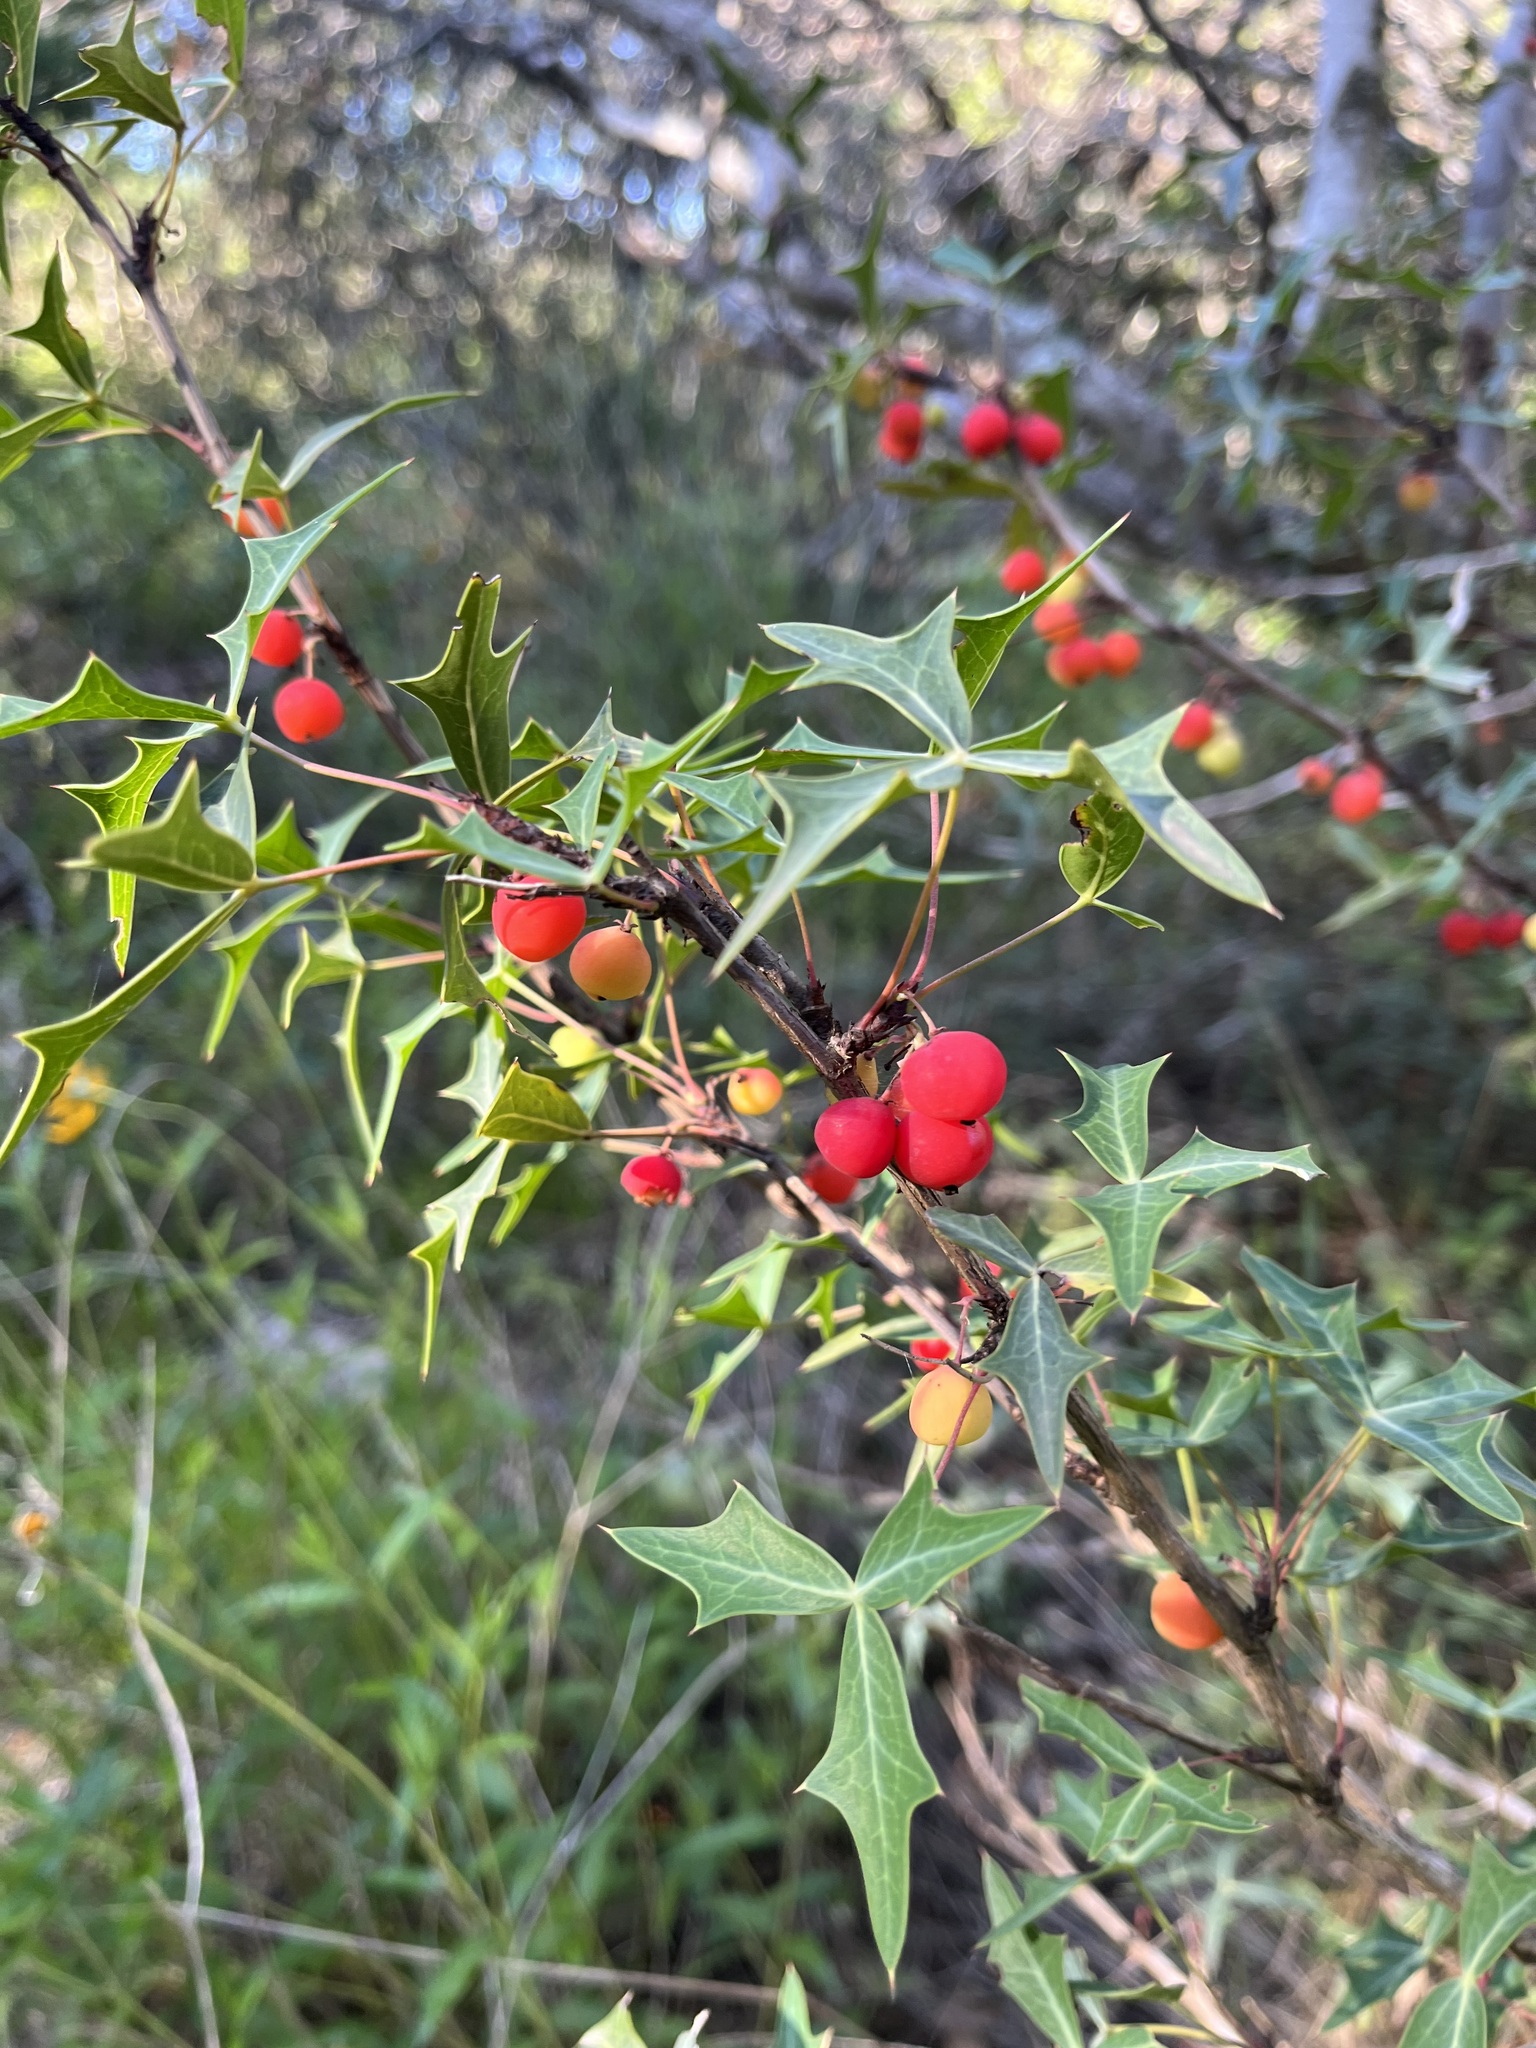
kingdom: Plantae
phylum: Tracheophyta
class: Magnoliopsida
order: Ranunculales
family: Berberidaceae
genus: Alloberberis
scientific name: Alloberberis trifoliolata
